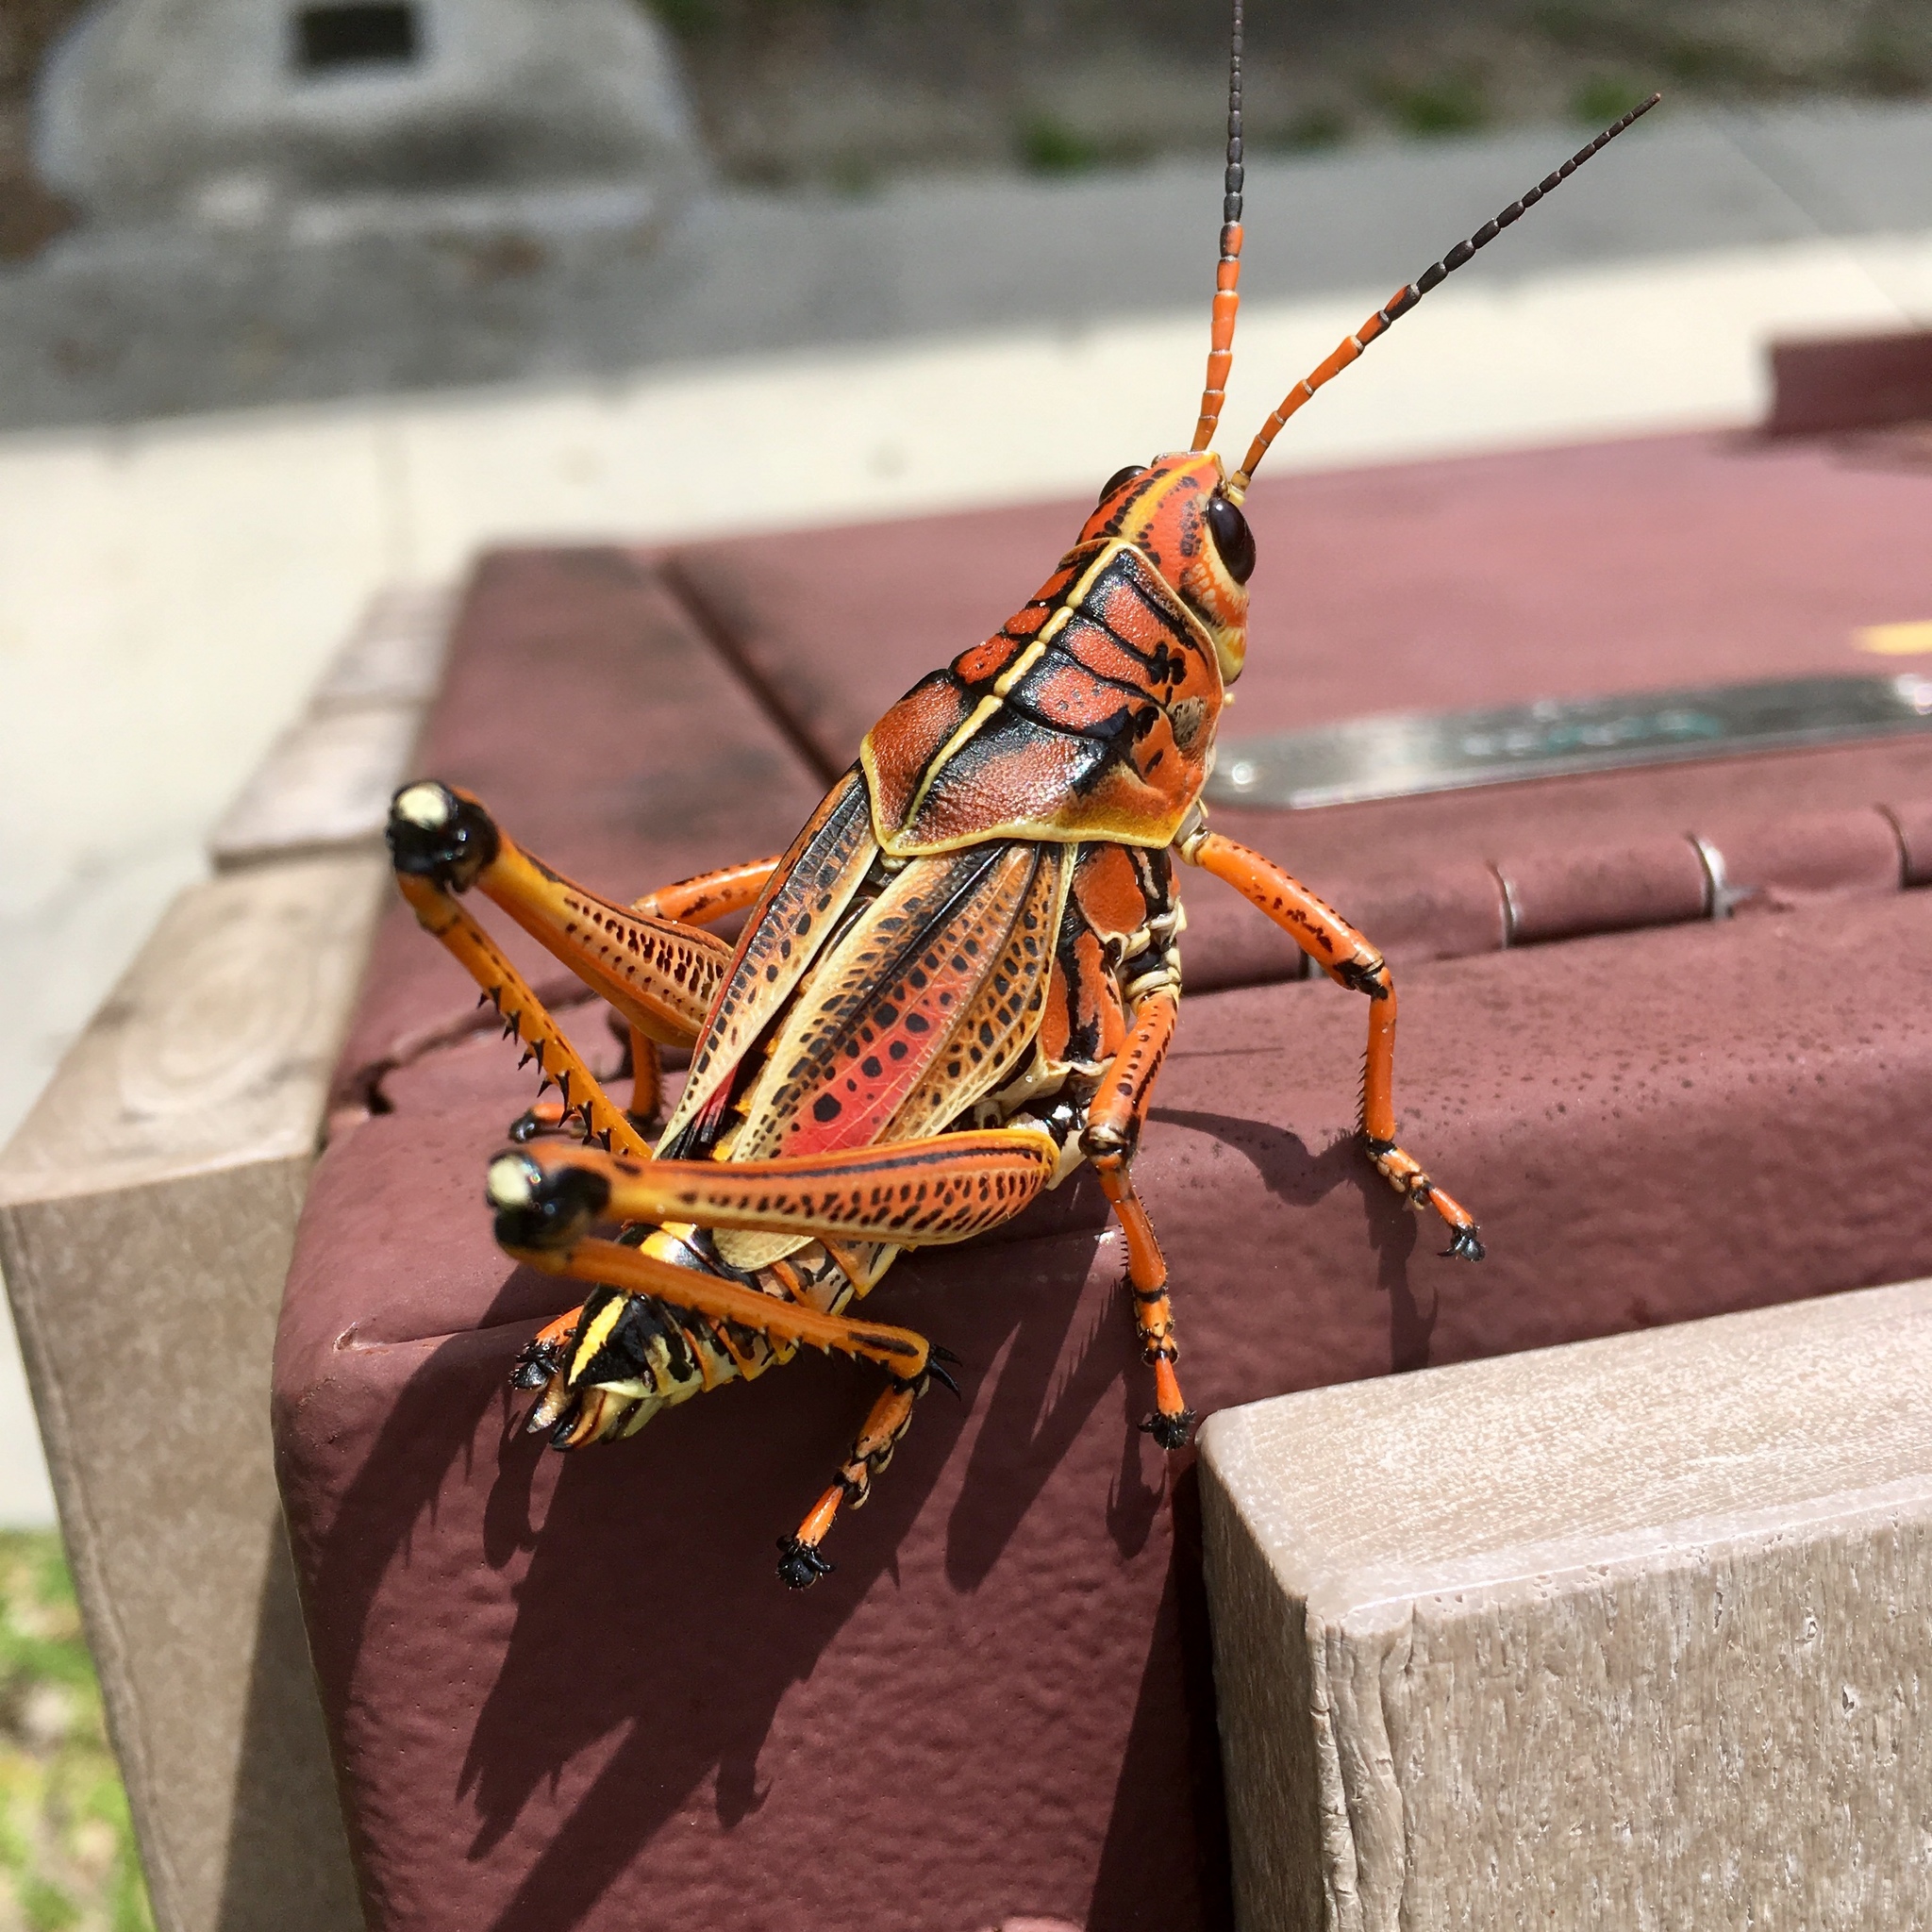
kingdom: Animalia
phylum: Arthropoda
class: Insecta
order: Orthoptera
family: Romaleidae
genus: Romalea
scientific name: Romalea microptera
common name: Eastern lubber grasshopper
